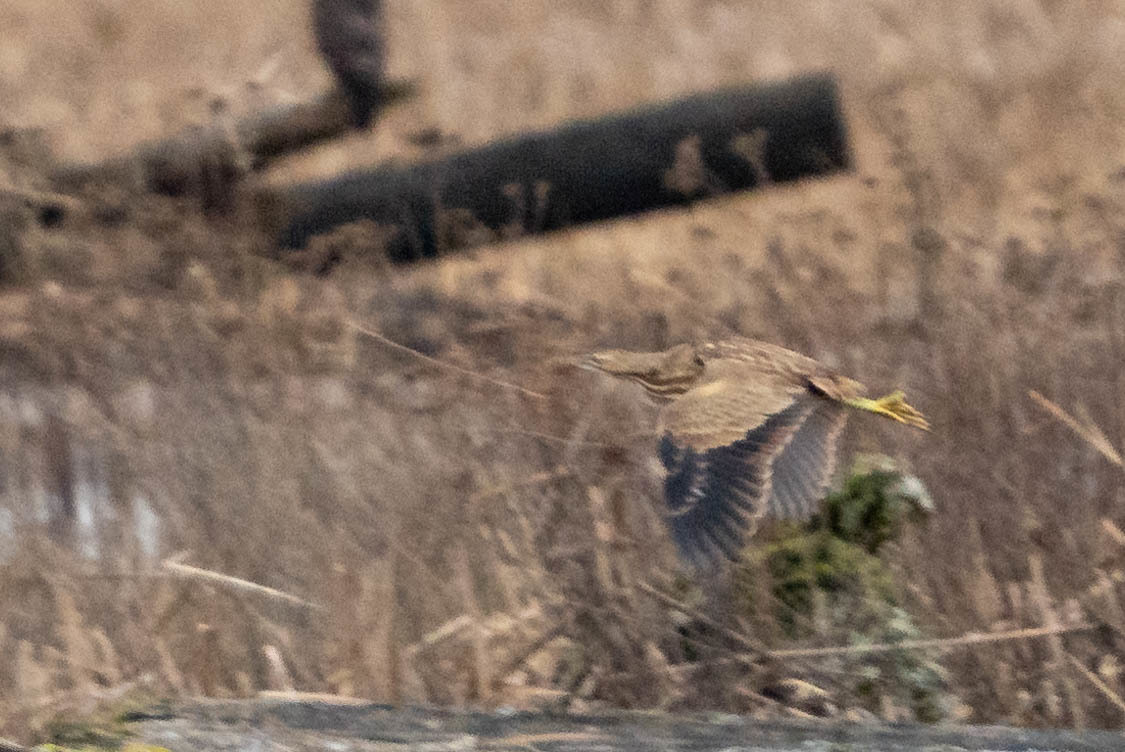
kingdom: Animalia
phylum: Chordata
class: Aves
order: Pelecaniformes
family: Ardeidae
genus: Botaurus
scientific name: Botaurus lentiginosus
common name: American bittern
